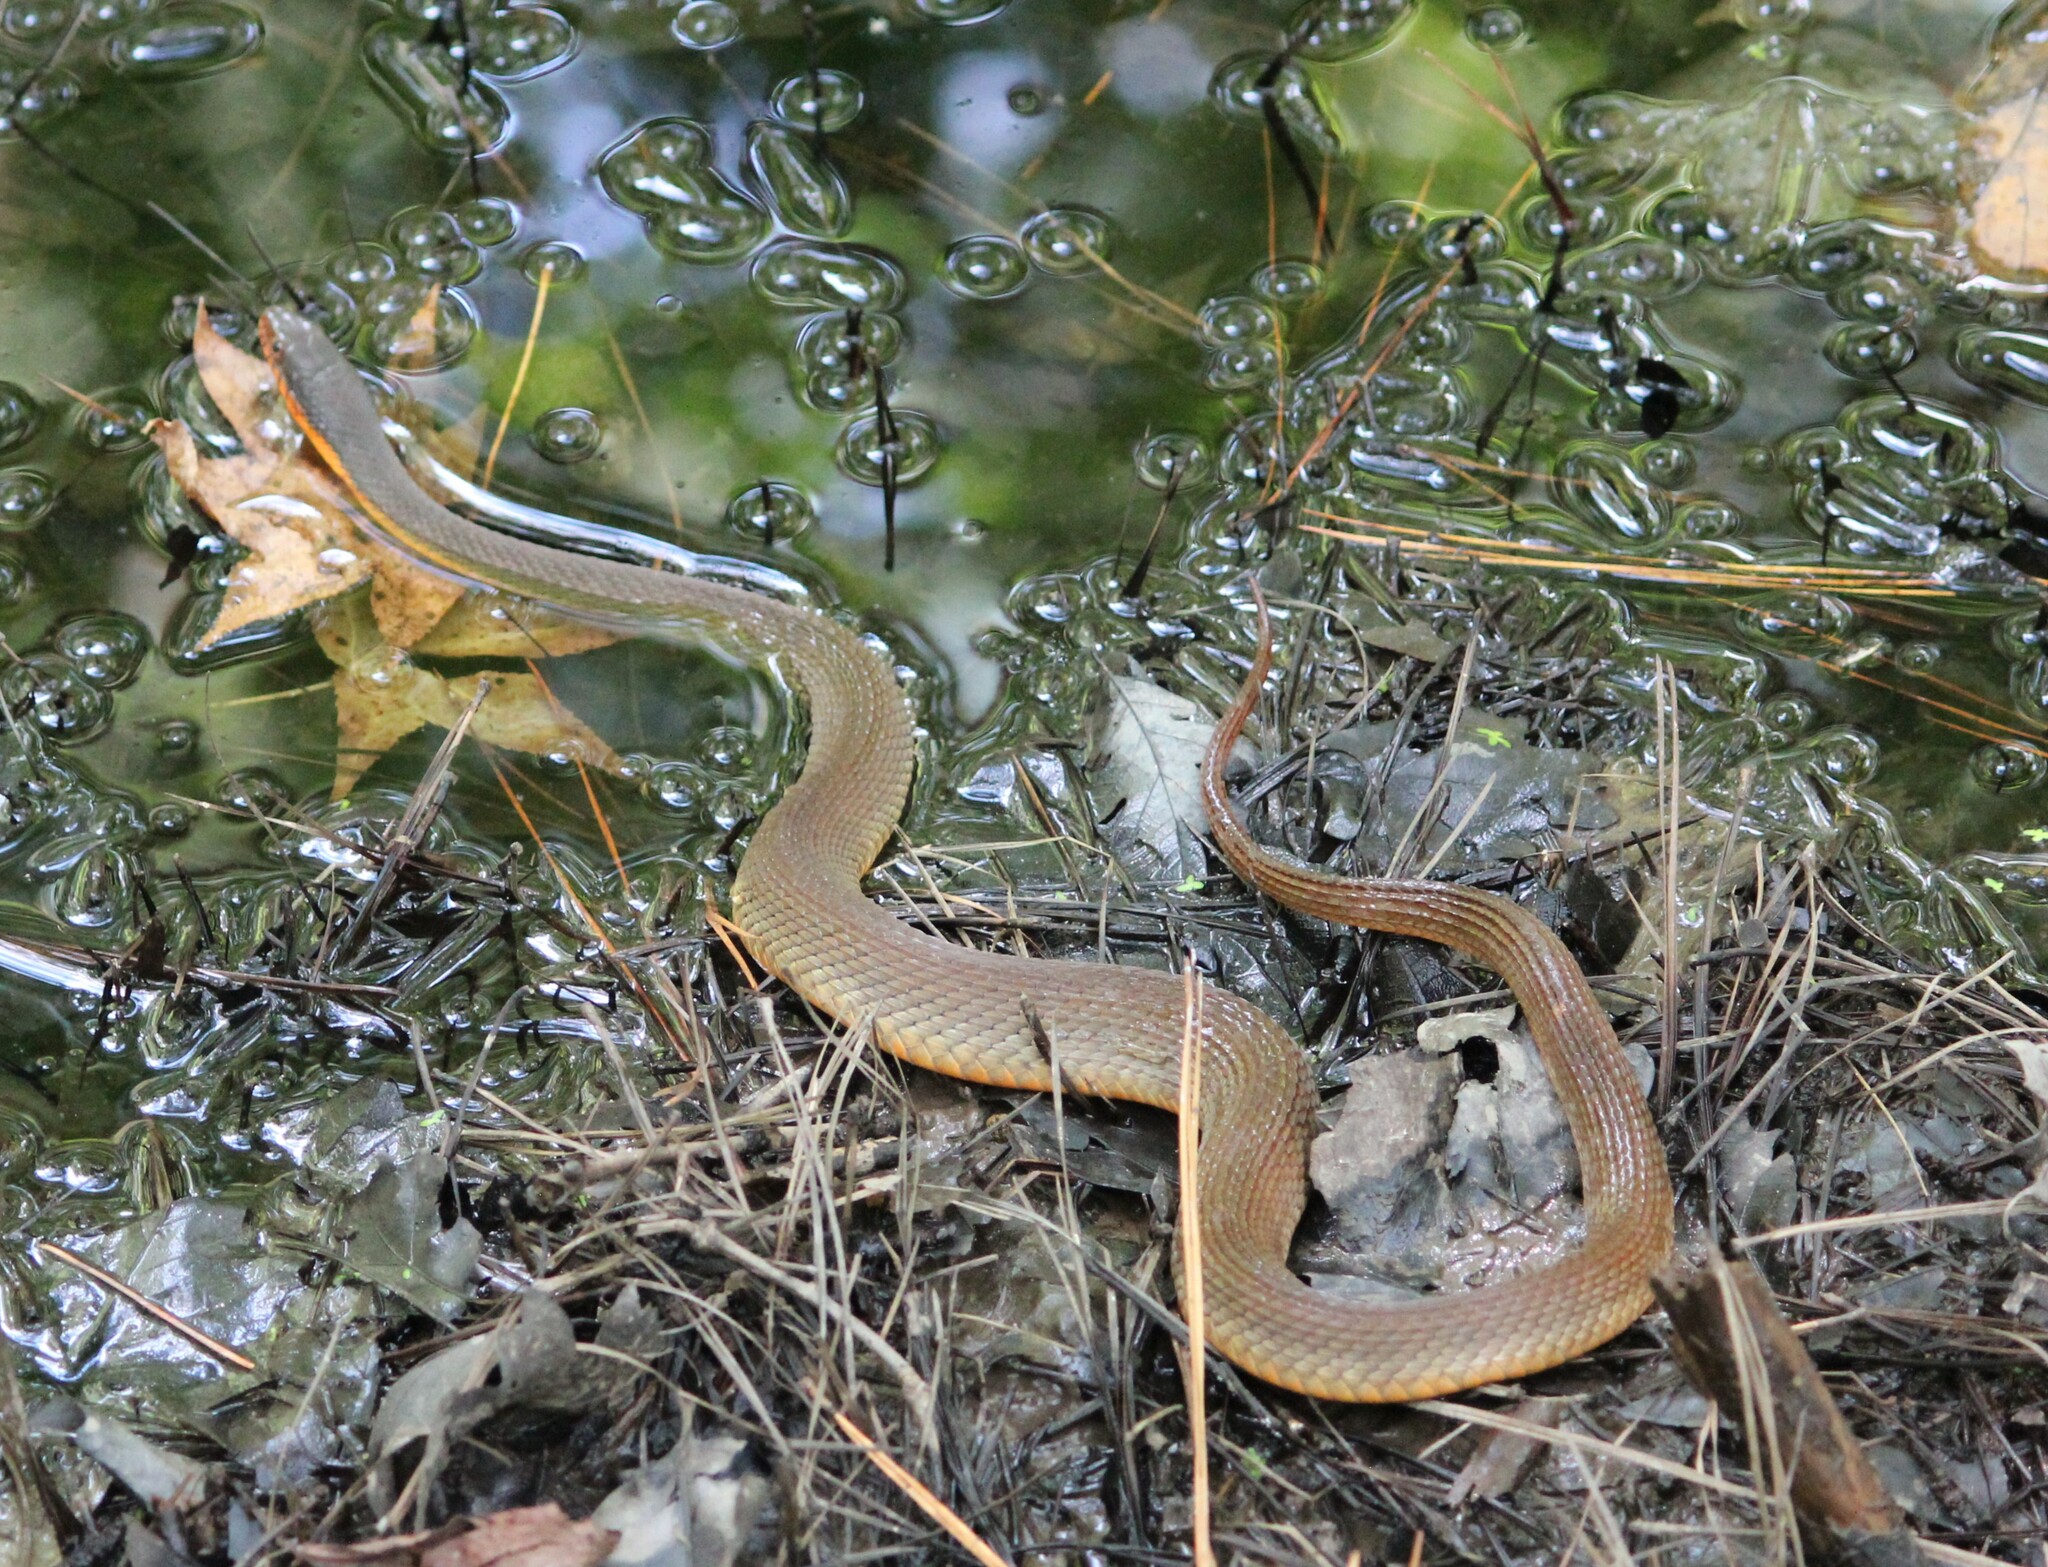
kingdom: Animalia
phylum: Chordata
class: Squamata
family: Colubridae
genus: Nerodia
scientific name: Nerodia erythrogaster
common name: Plainbelly water snake
